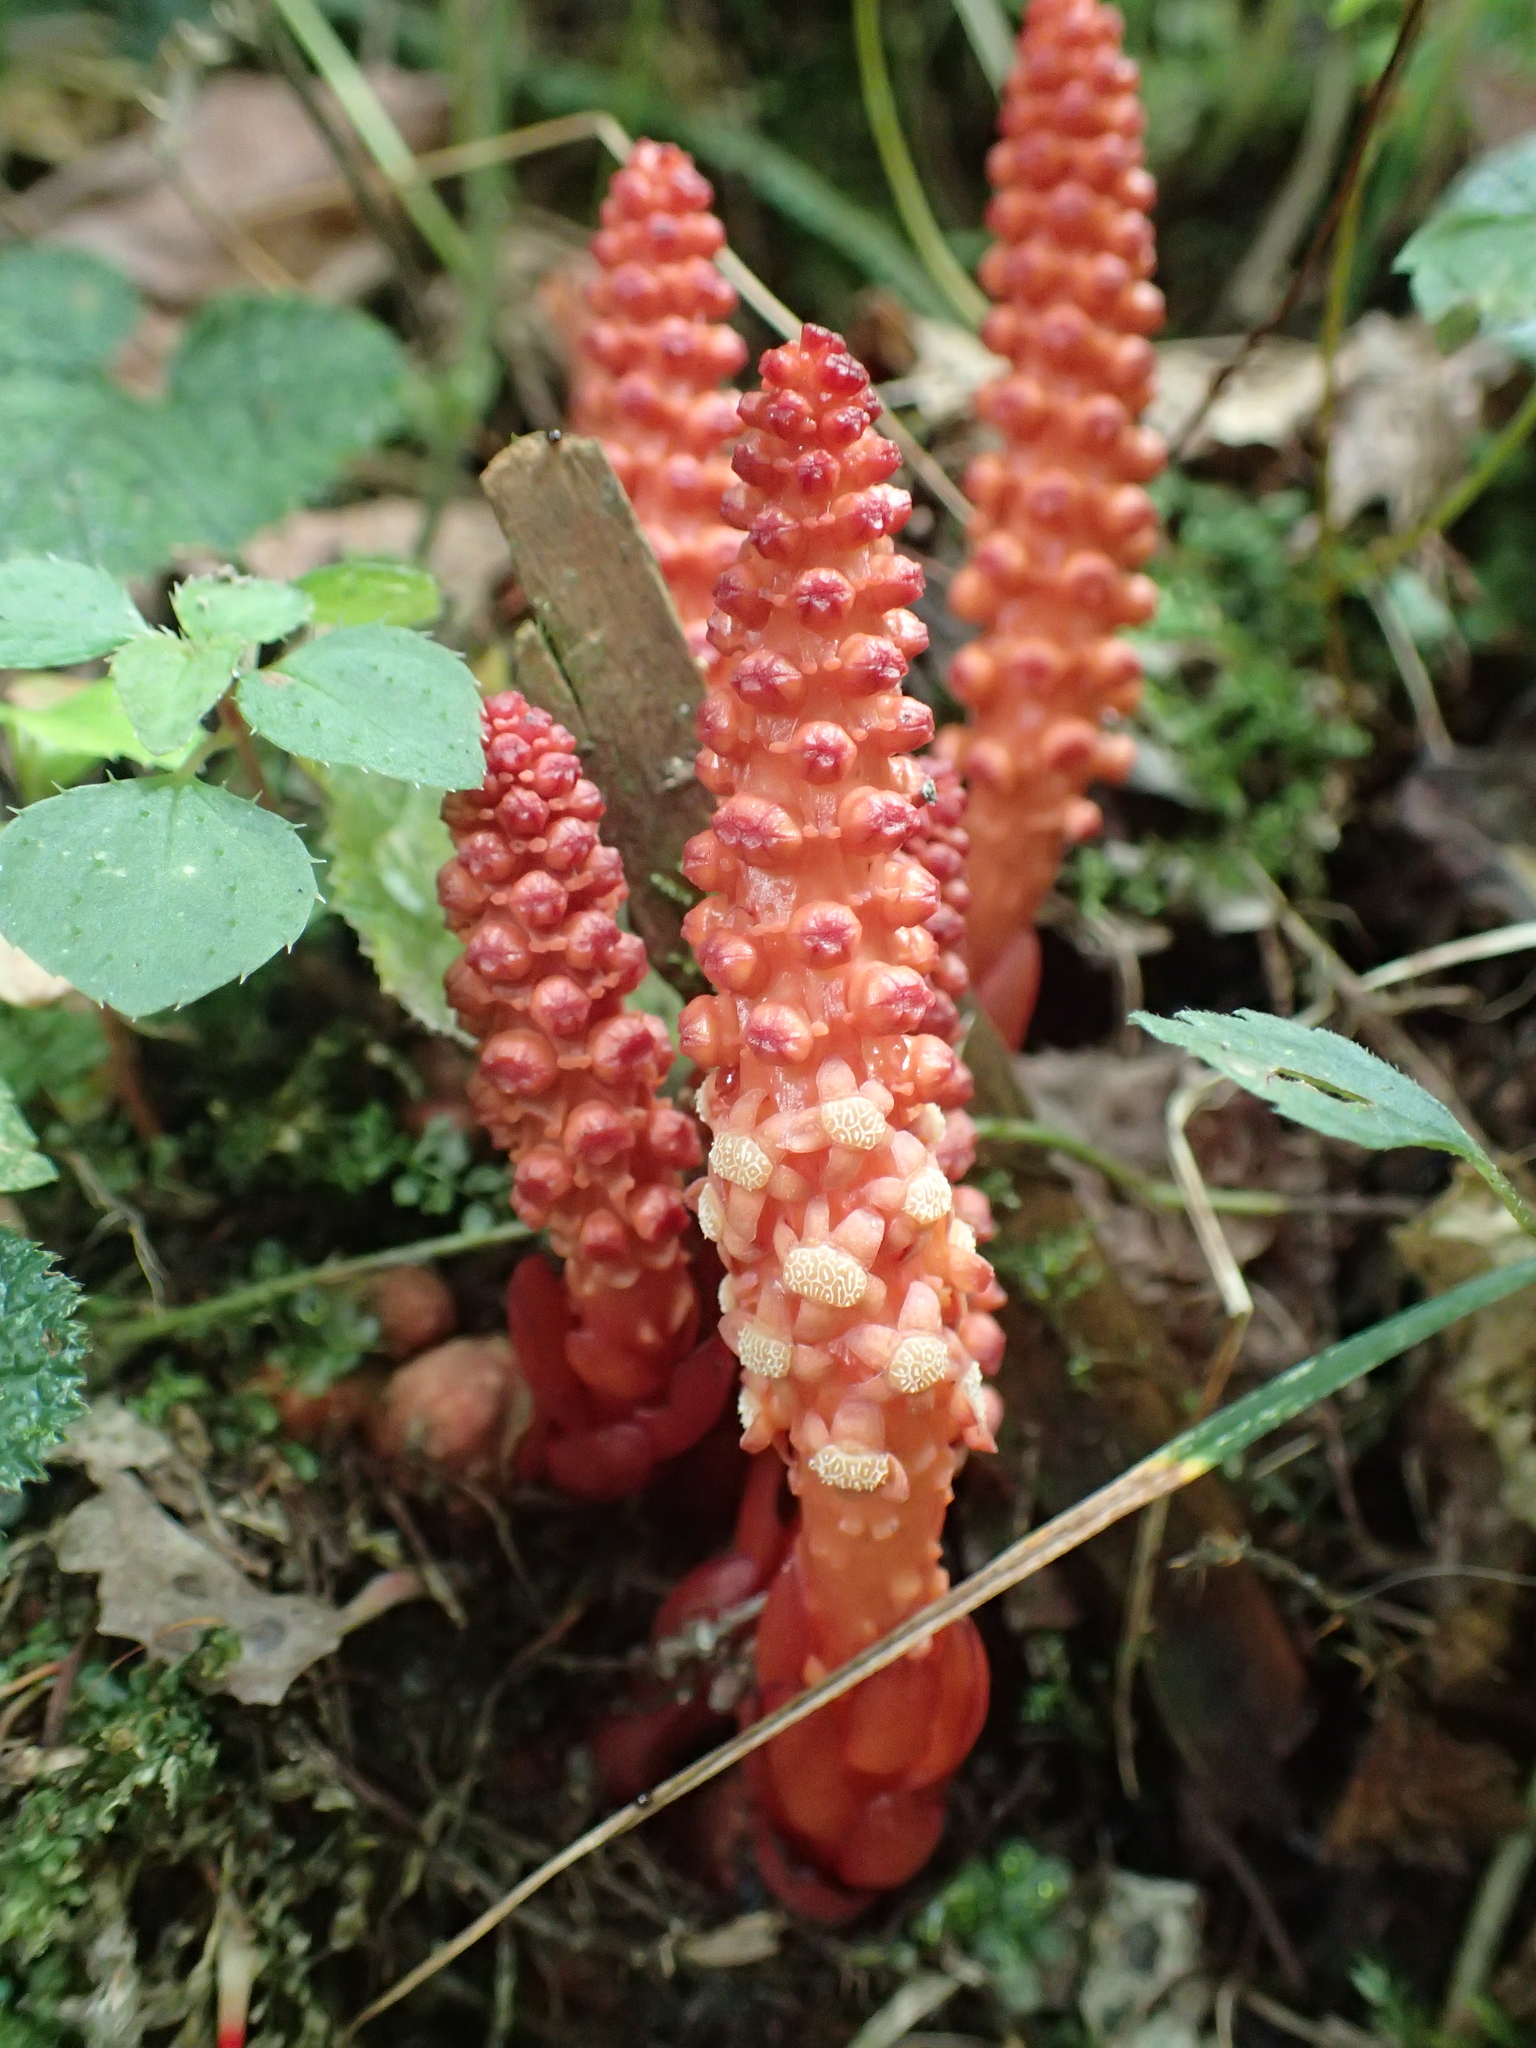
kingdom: Plantae
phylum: Tracheophyta
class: Magnoliopsida
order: Santalales
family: Balanophoraceae
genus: Balanophora
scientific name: Balanophora laxiflora
